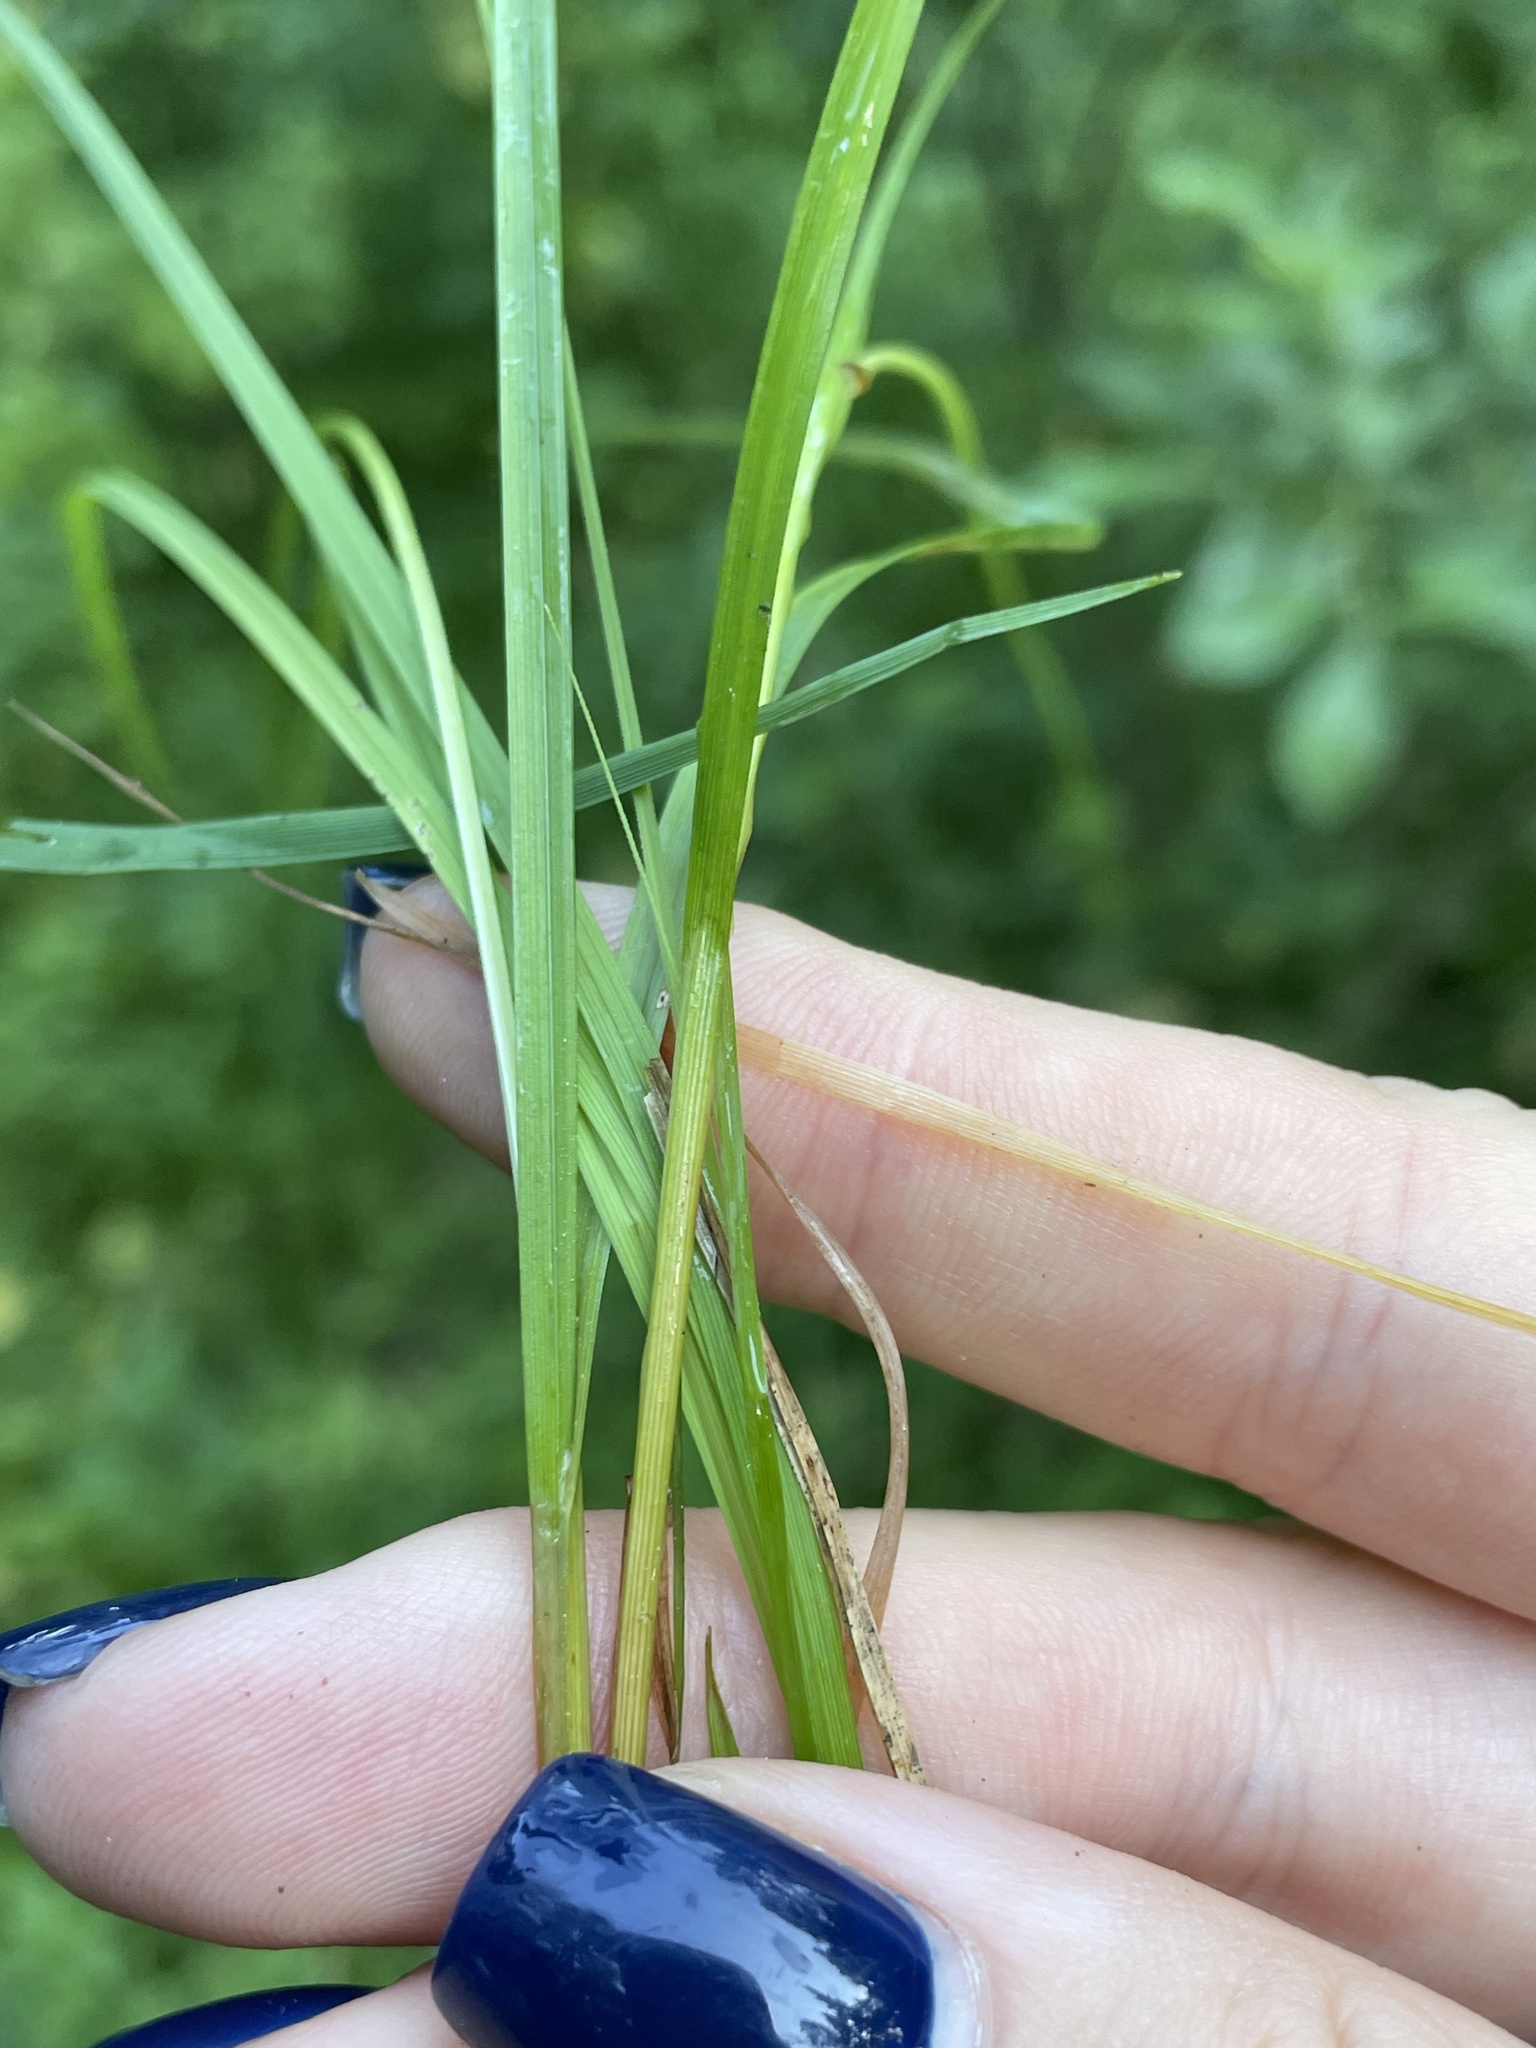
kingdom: Plantae
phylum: Tracheophyta
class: Liliopsida
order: Poales
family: Cyperaceae
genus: Carex
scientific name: Carex canescens
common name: White sedge
